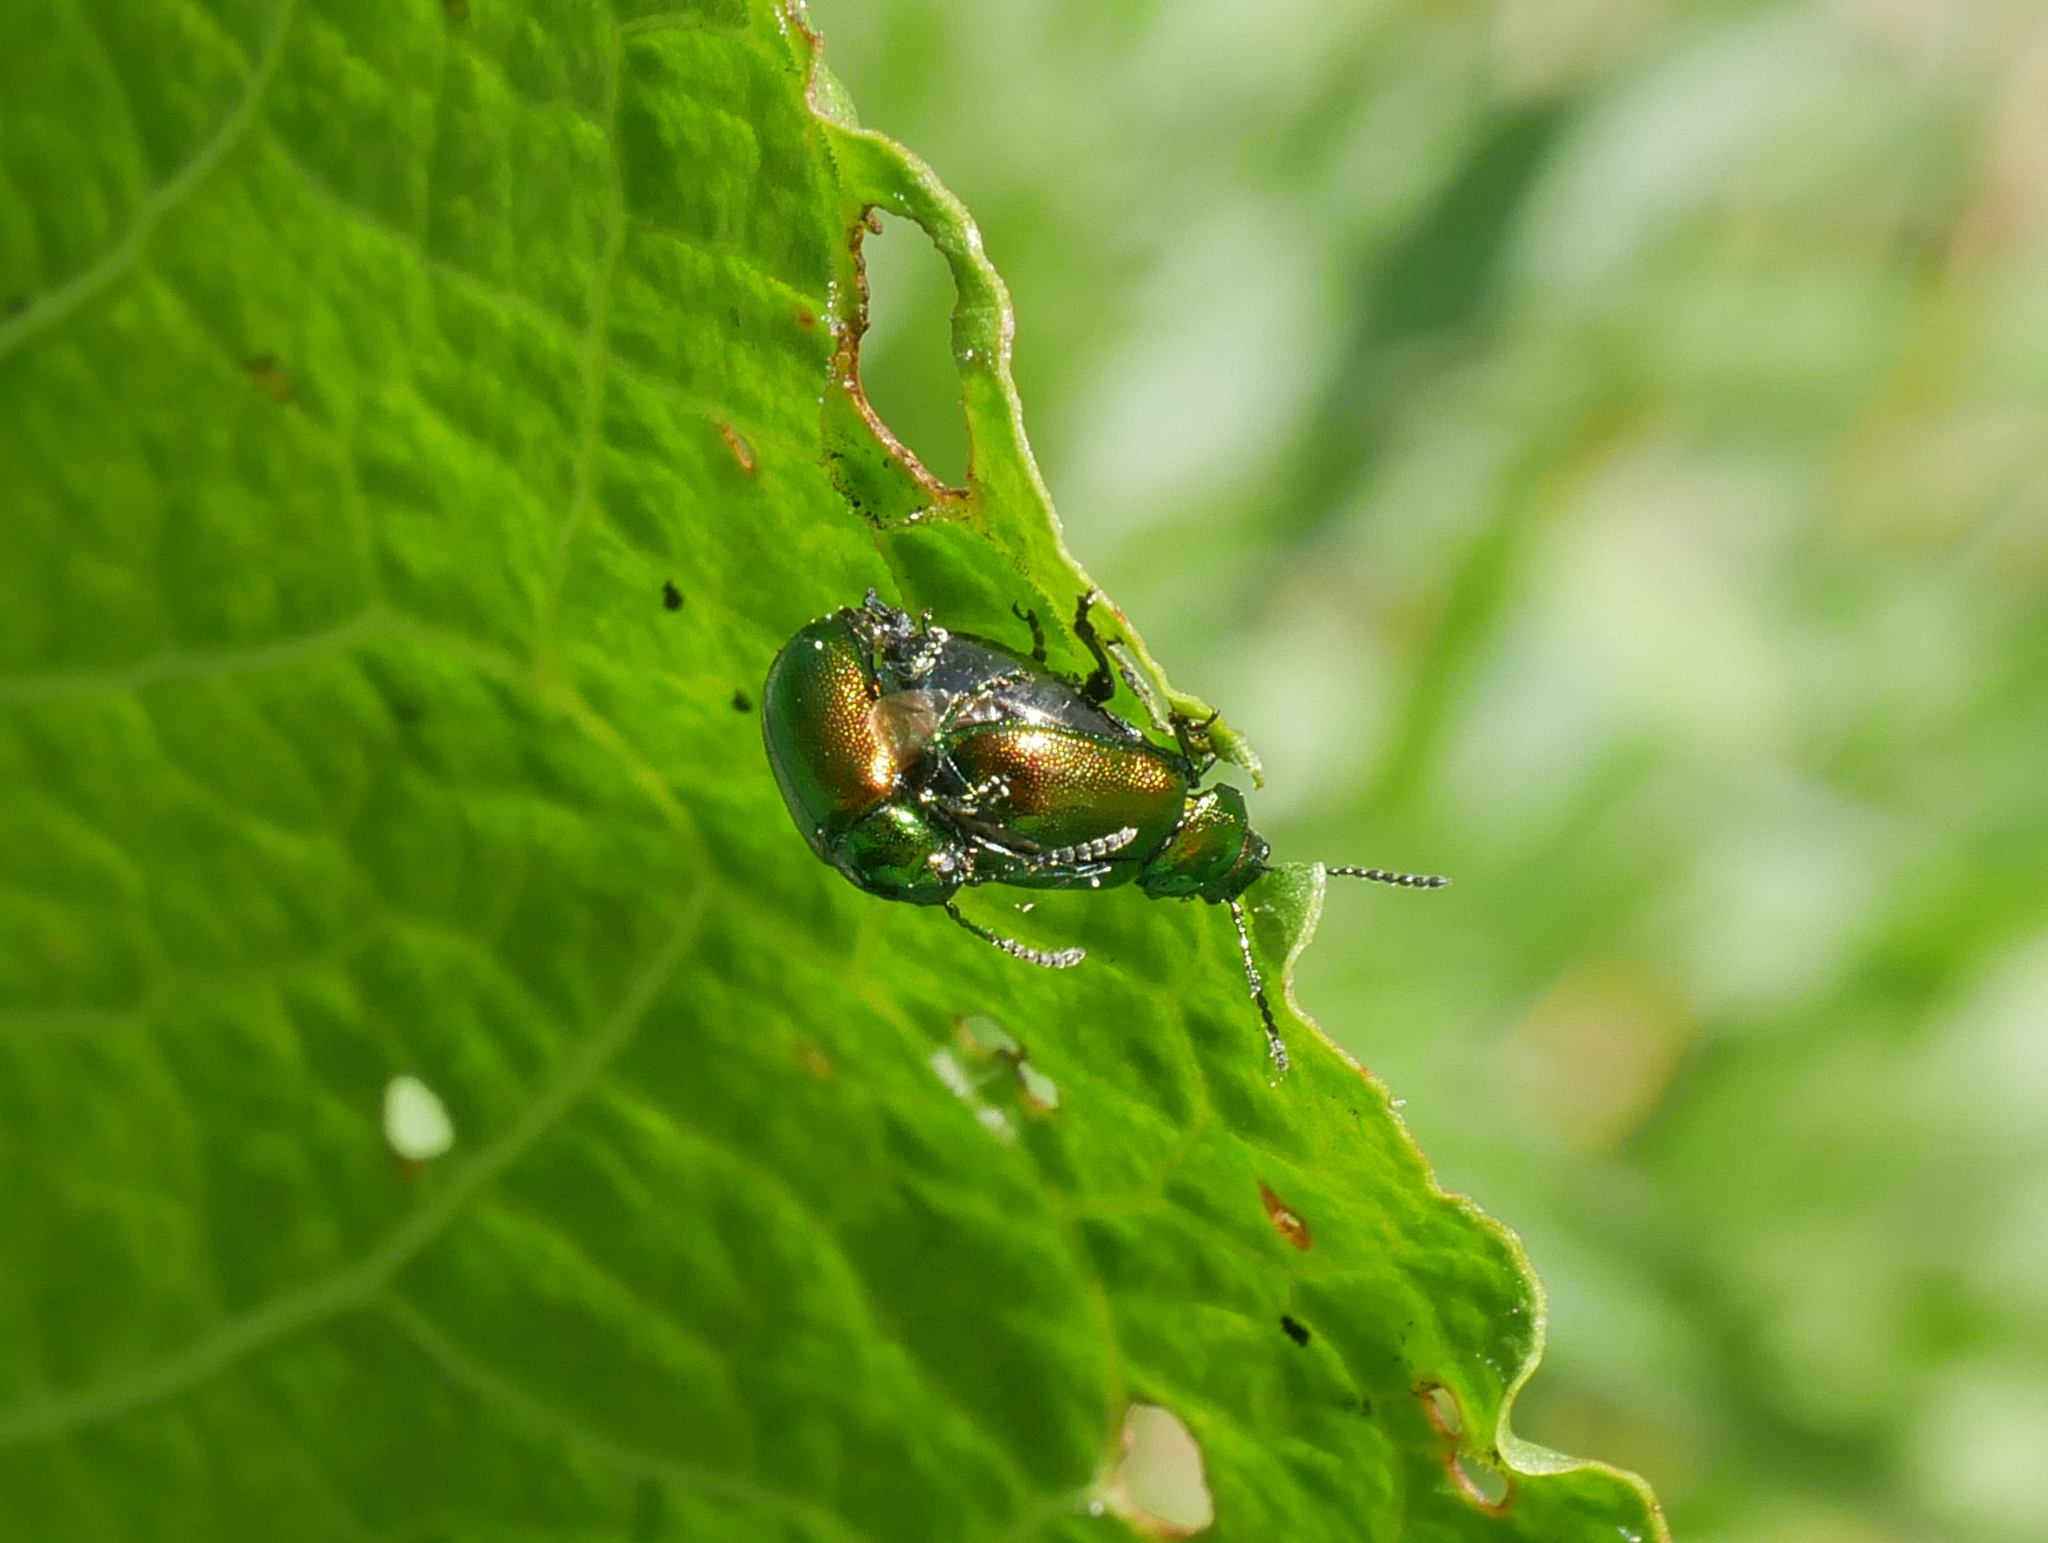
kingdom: Animalia
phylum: Arthropoda
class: Insecta
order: Coleoptera
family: Chrysomelidae
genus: Gastrophysa
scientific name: Gastrophysa viridula
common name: Green dock beetle
